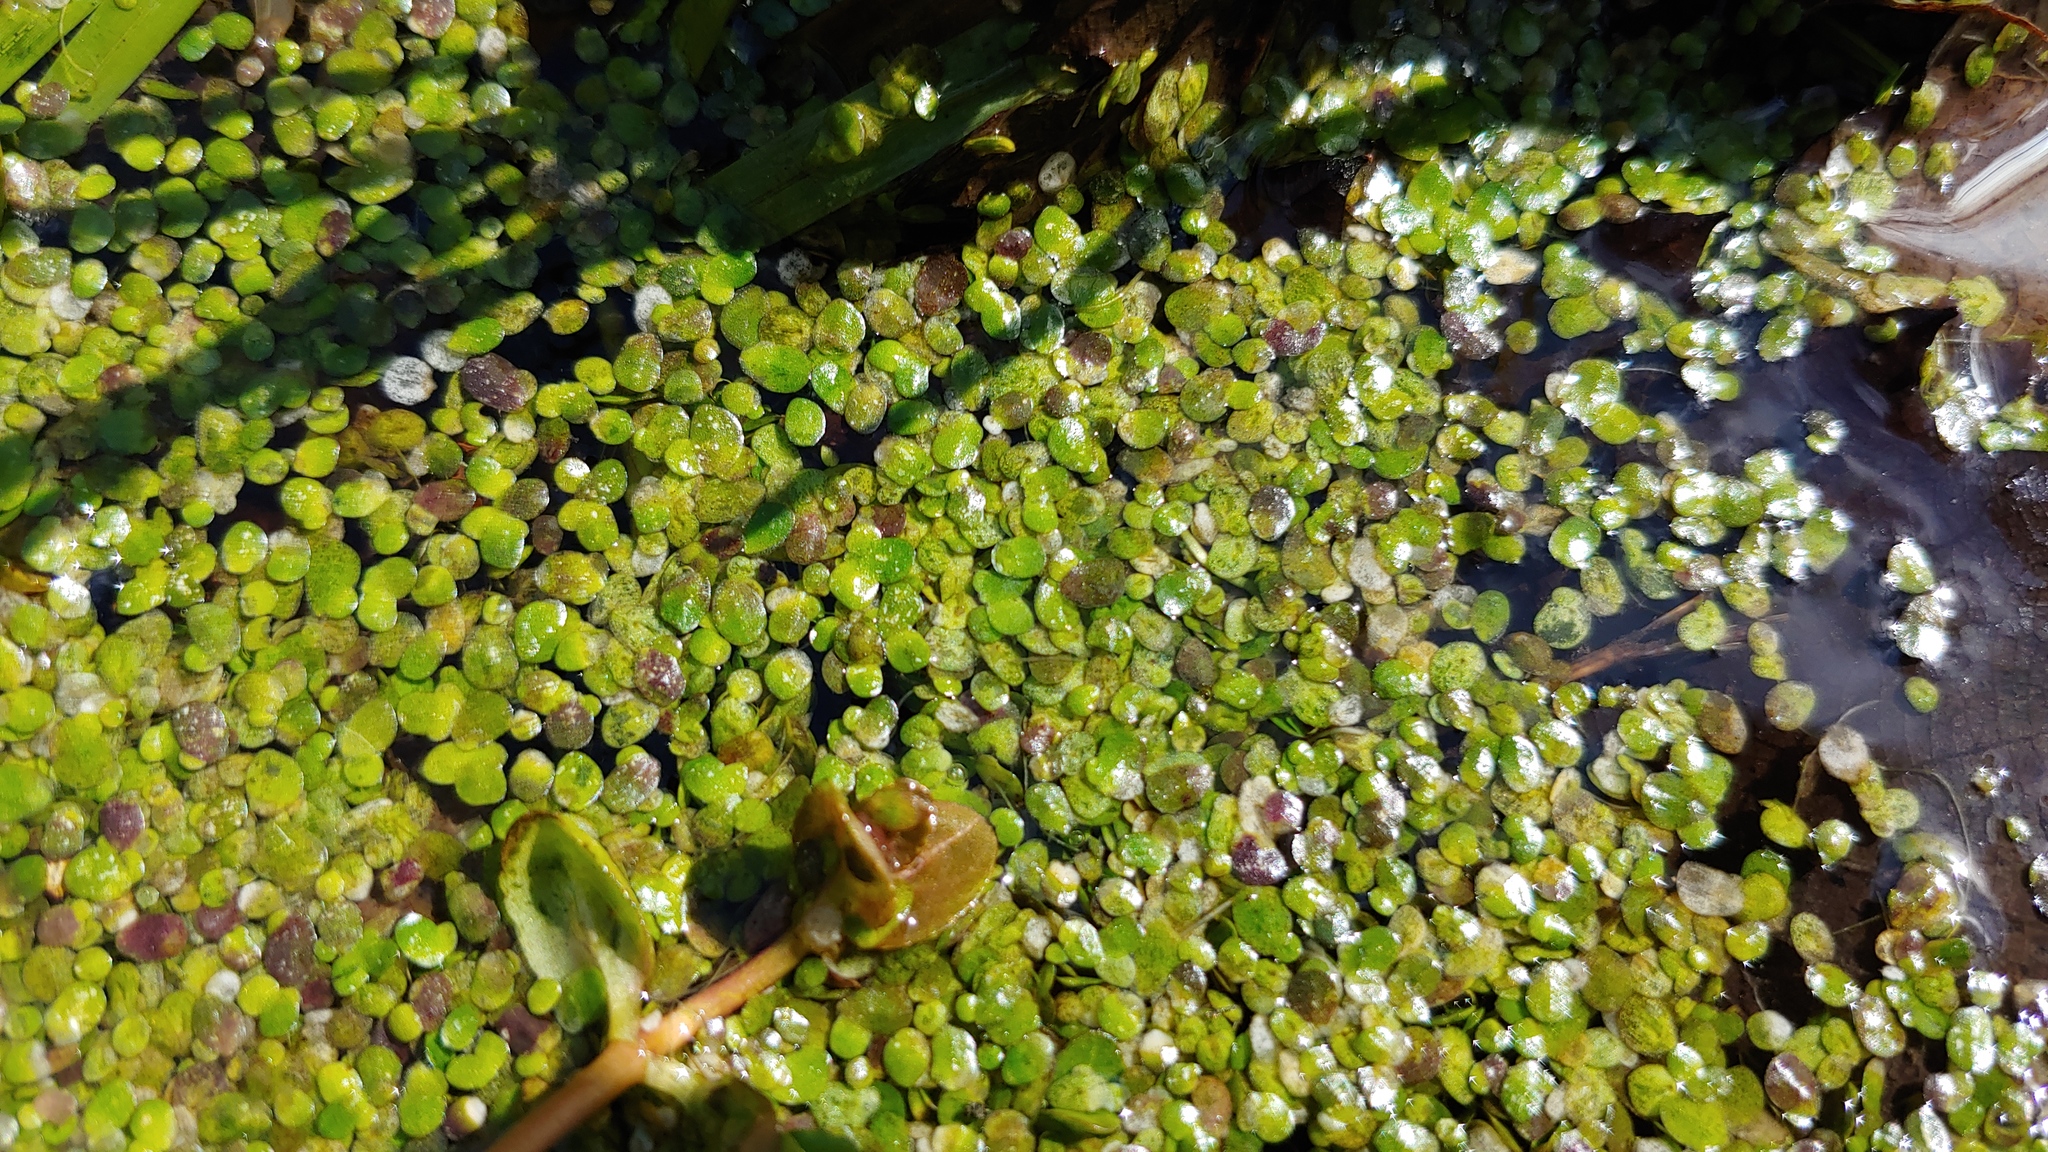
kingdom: Plantae
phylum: Tracheophyta
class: Liliopsida
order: Alismatales
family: Araceae
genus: Spirodela
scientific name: Spirodela polyrhiza
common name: Great duckweed
